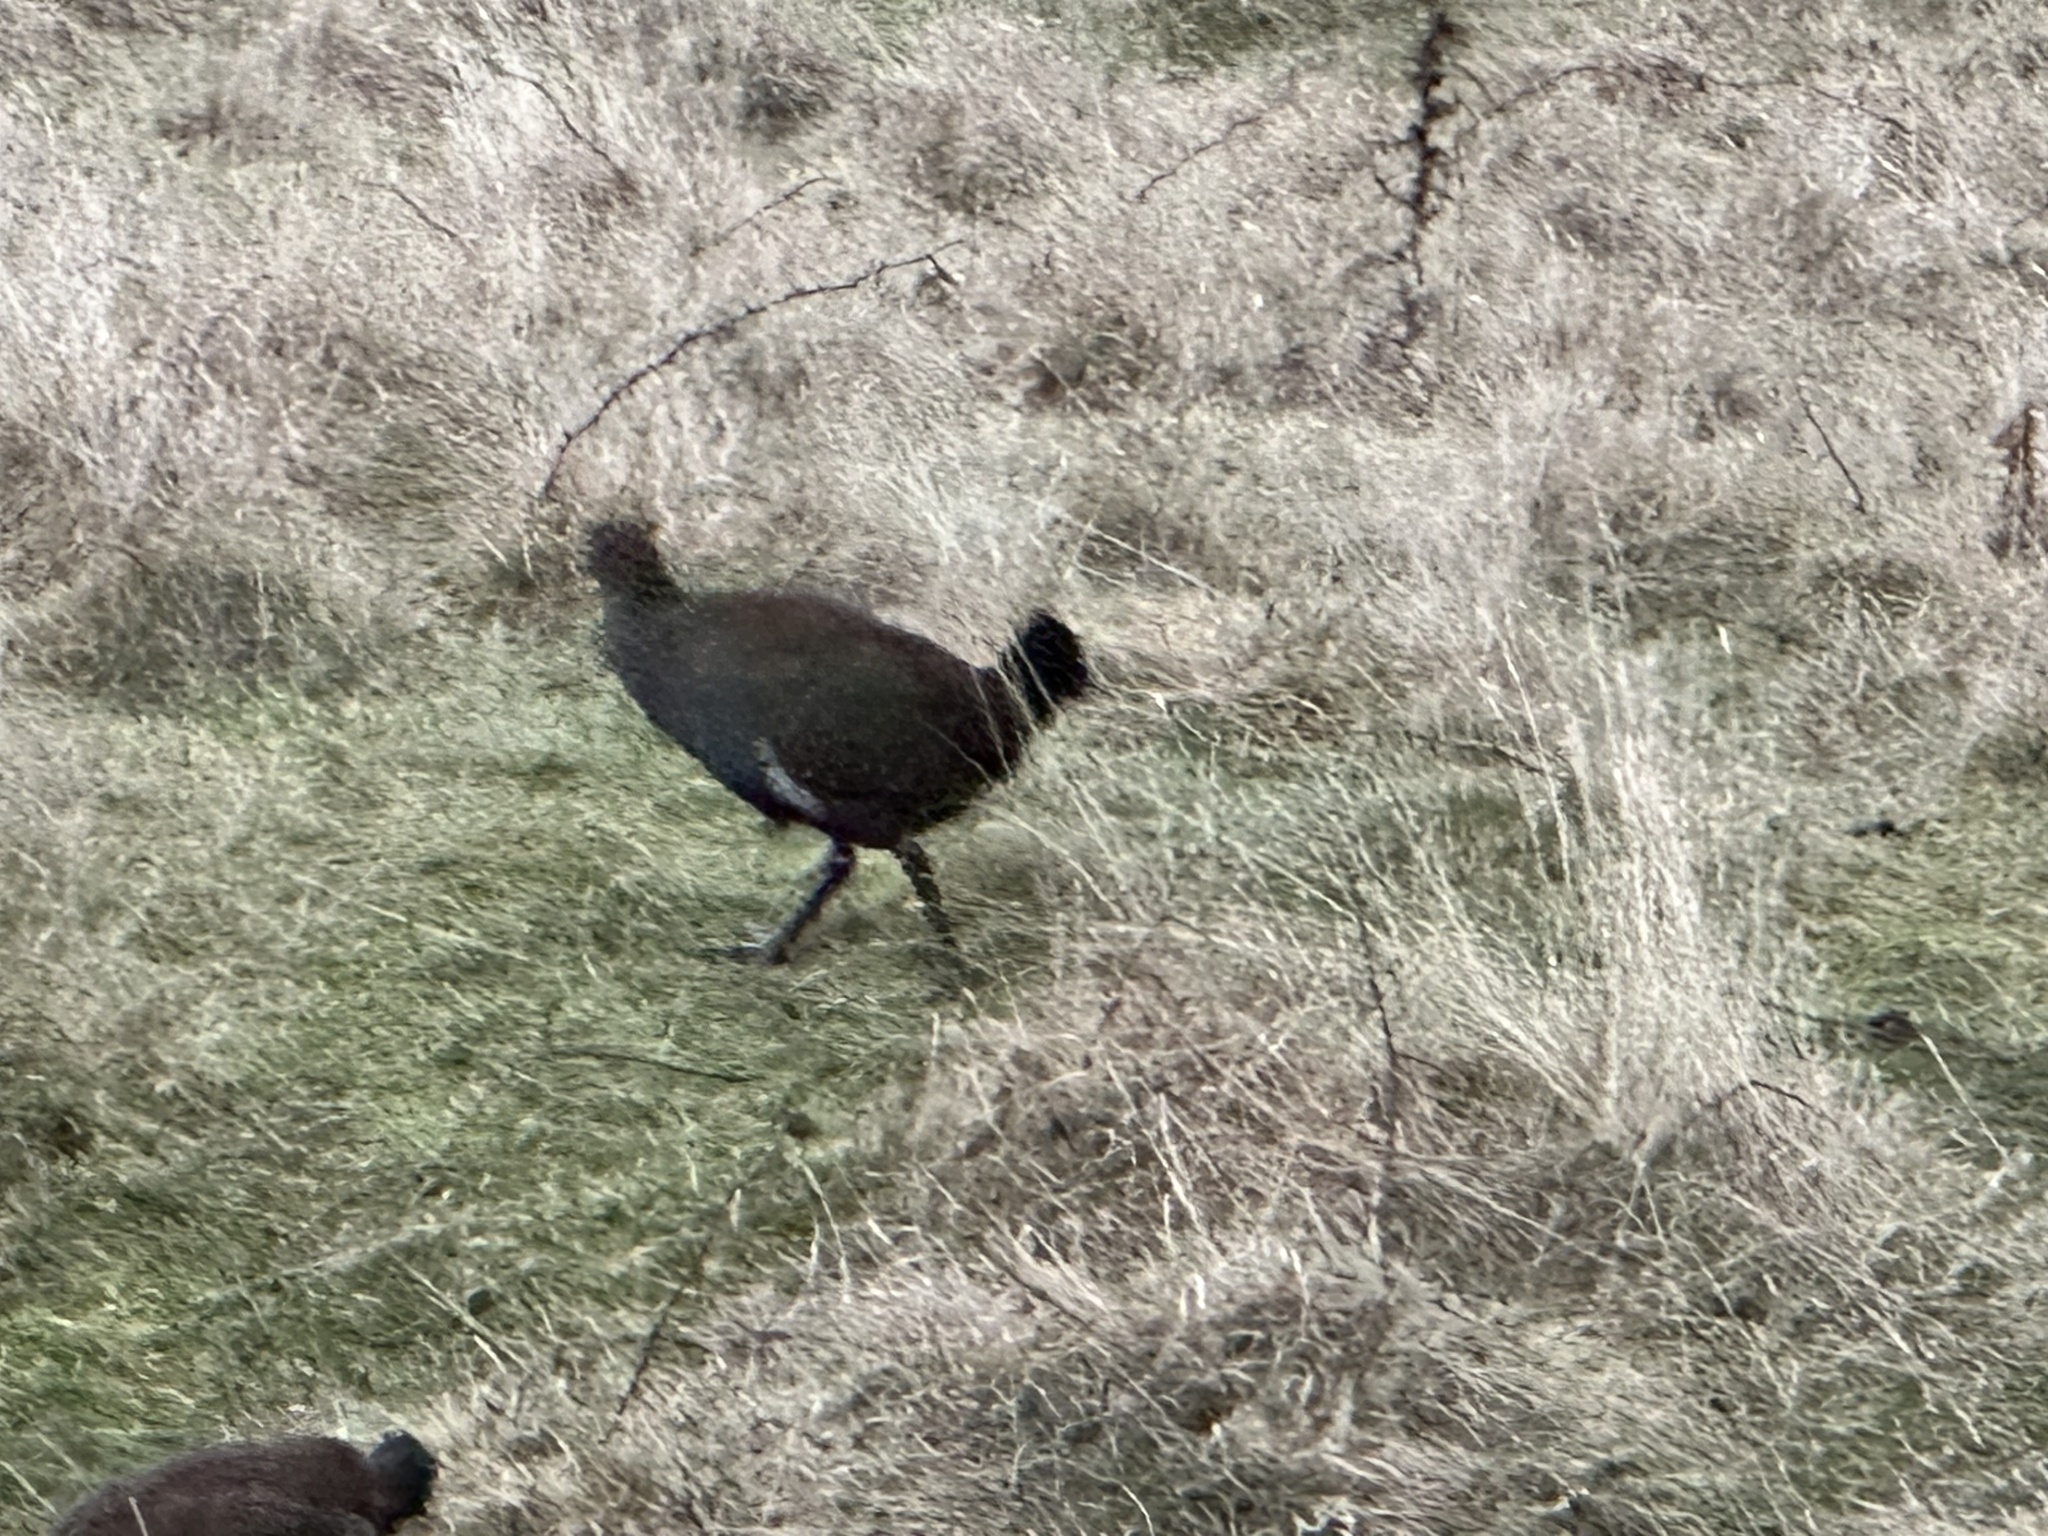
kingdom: Animalia
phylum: Chordata
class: Aves
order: Gruiformes
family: Rallidae
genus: Gallinula
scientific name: Gallinula mortierii
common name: Tasmanian nativehen
